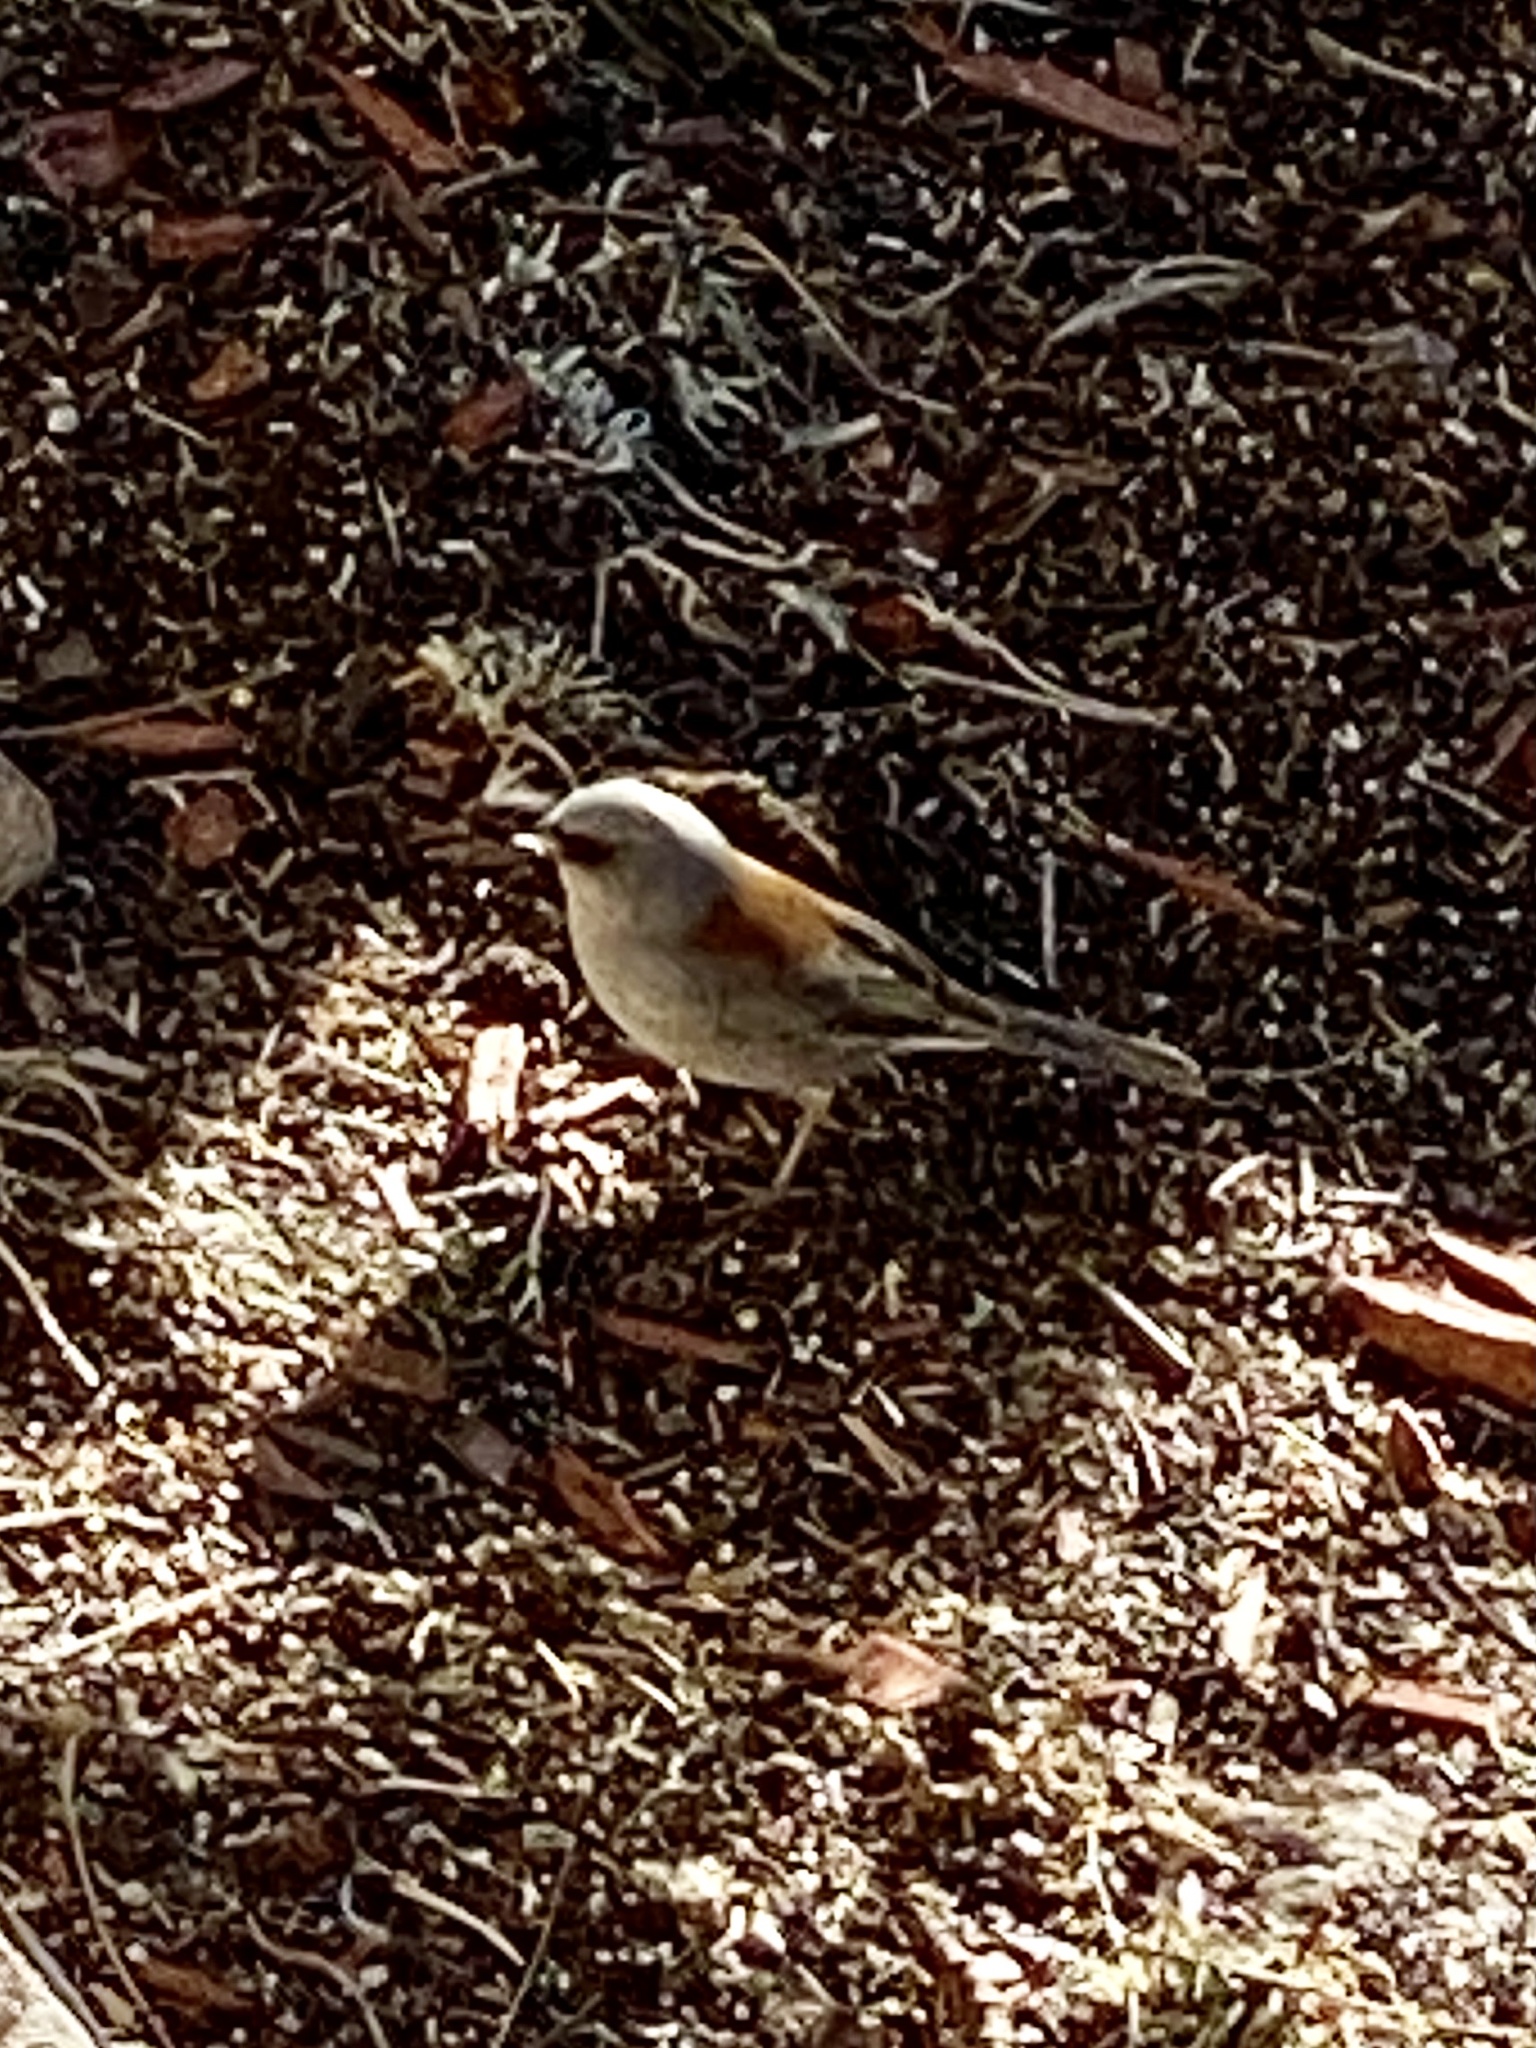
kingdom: Animalia
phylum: Chordata
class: Aves
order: Passeriformes
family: Passerellidae
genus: Junco
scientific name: Junco hyemalis
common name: Dark-eyed junco
